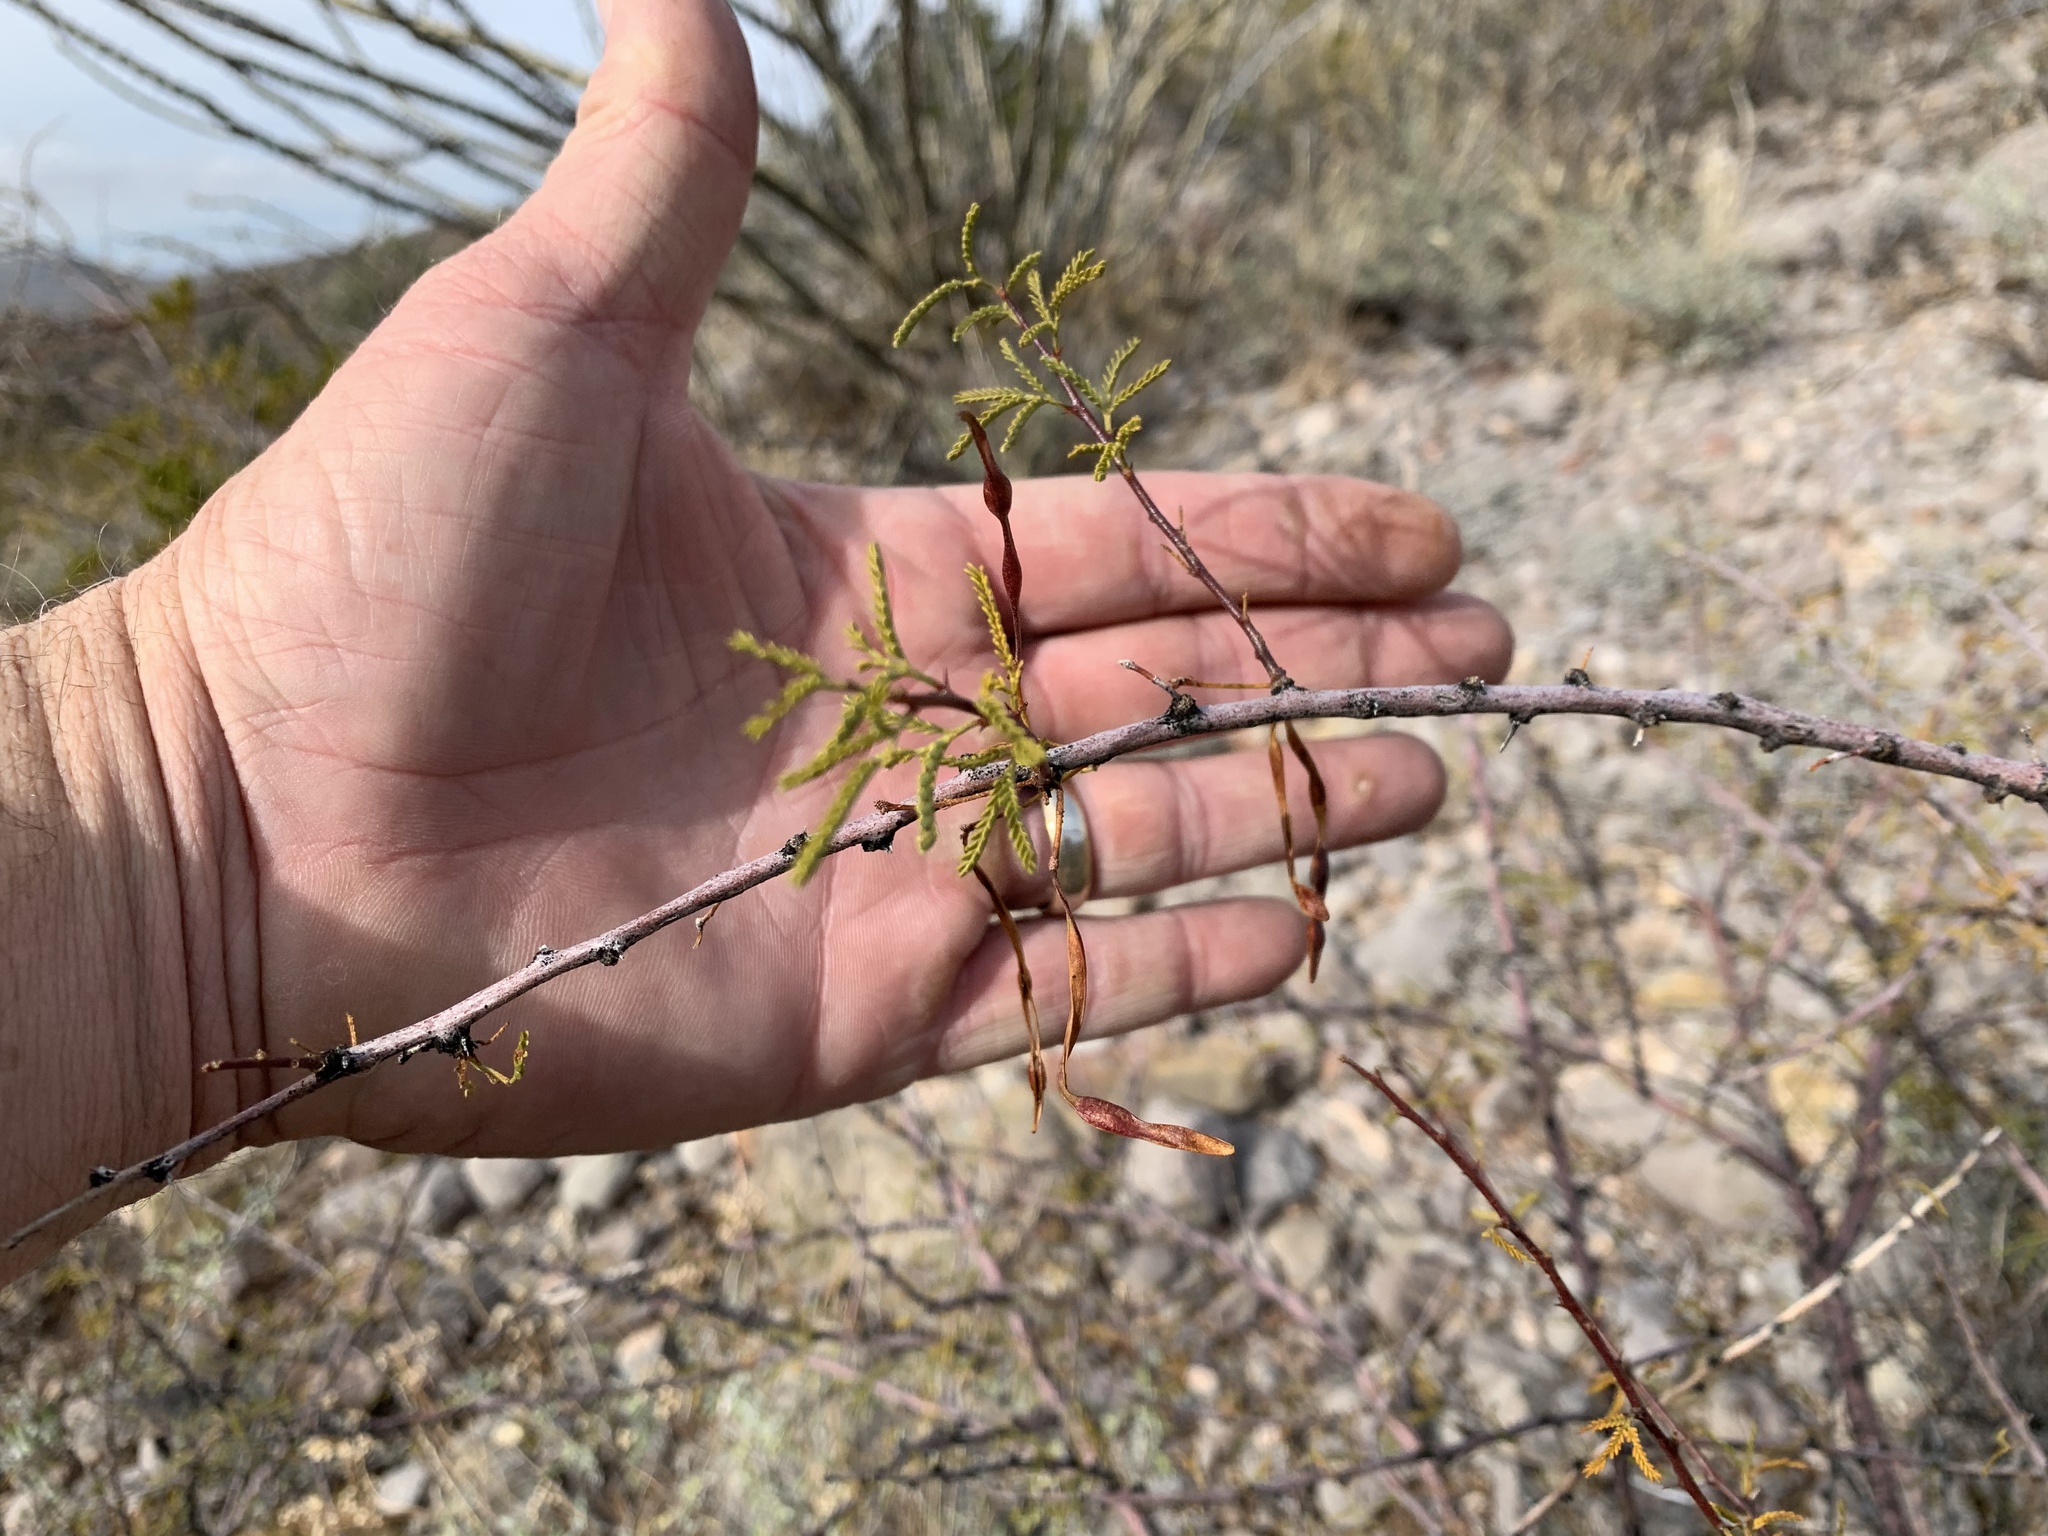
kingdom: Plantae
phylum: Tracheophyta
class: Magnoliopsida
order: Fabales
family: Fabaceae
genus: Vachellia
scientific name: Vachellia constricta
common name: Mescat acacia
